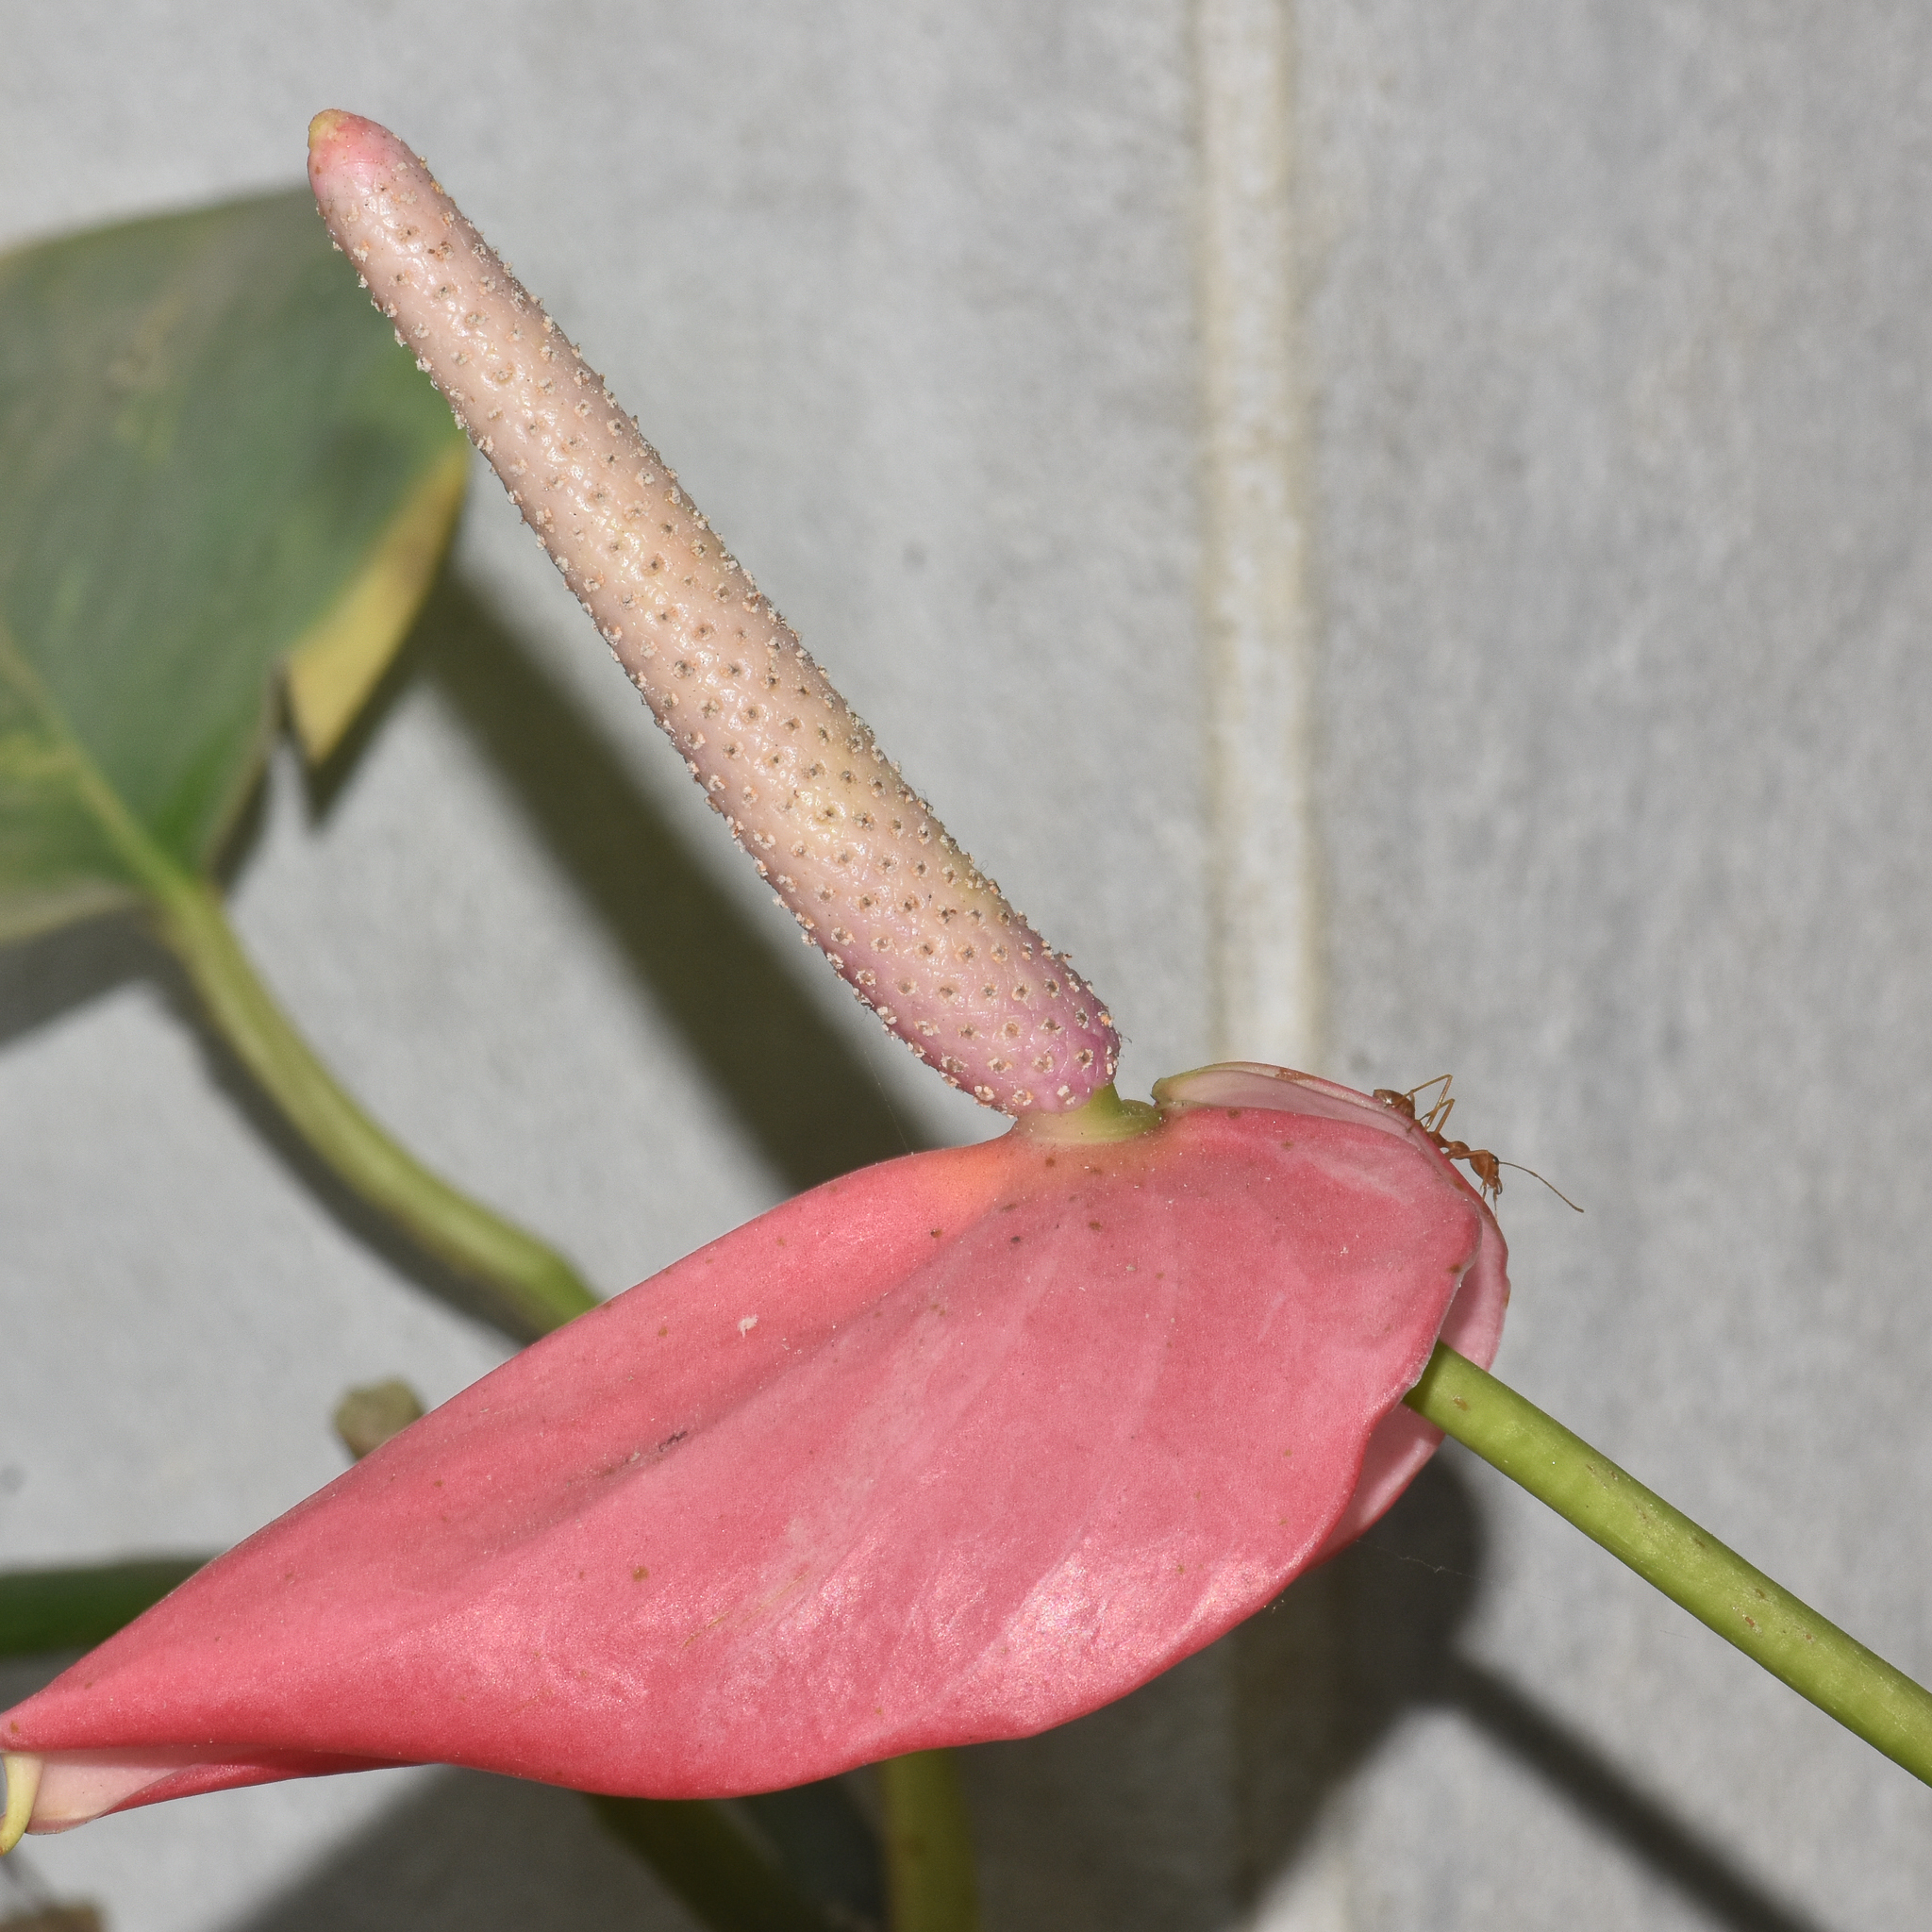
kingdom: Plantae
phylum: Tracheophyta
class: Liliopsida
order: Alismatales
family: Araceae
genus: Anthurium
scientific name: Anthurium andraeanum
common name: Flamingo-flower
